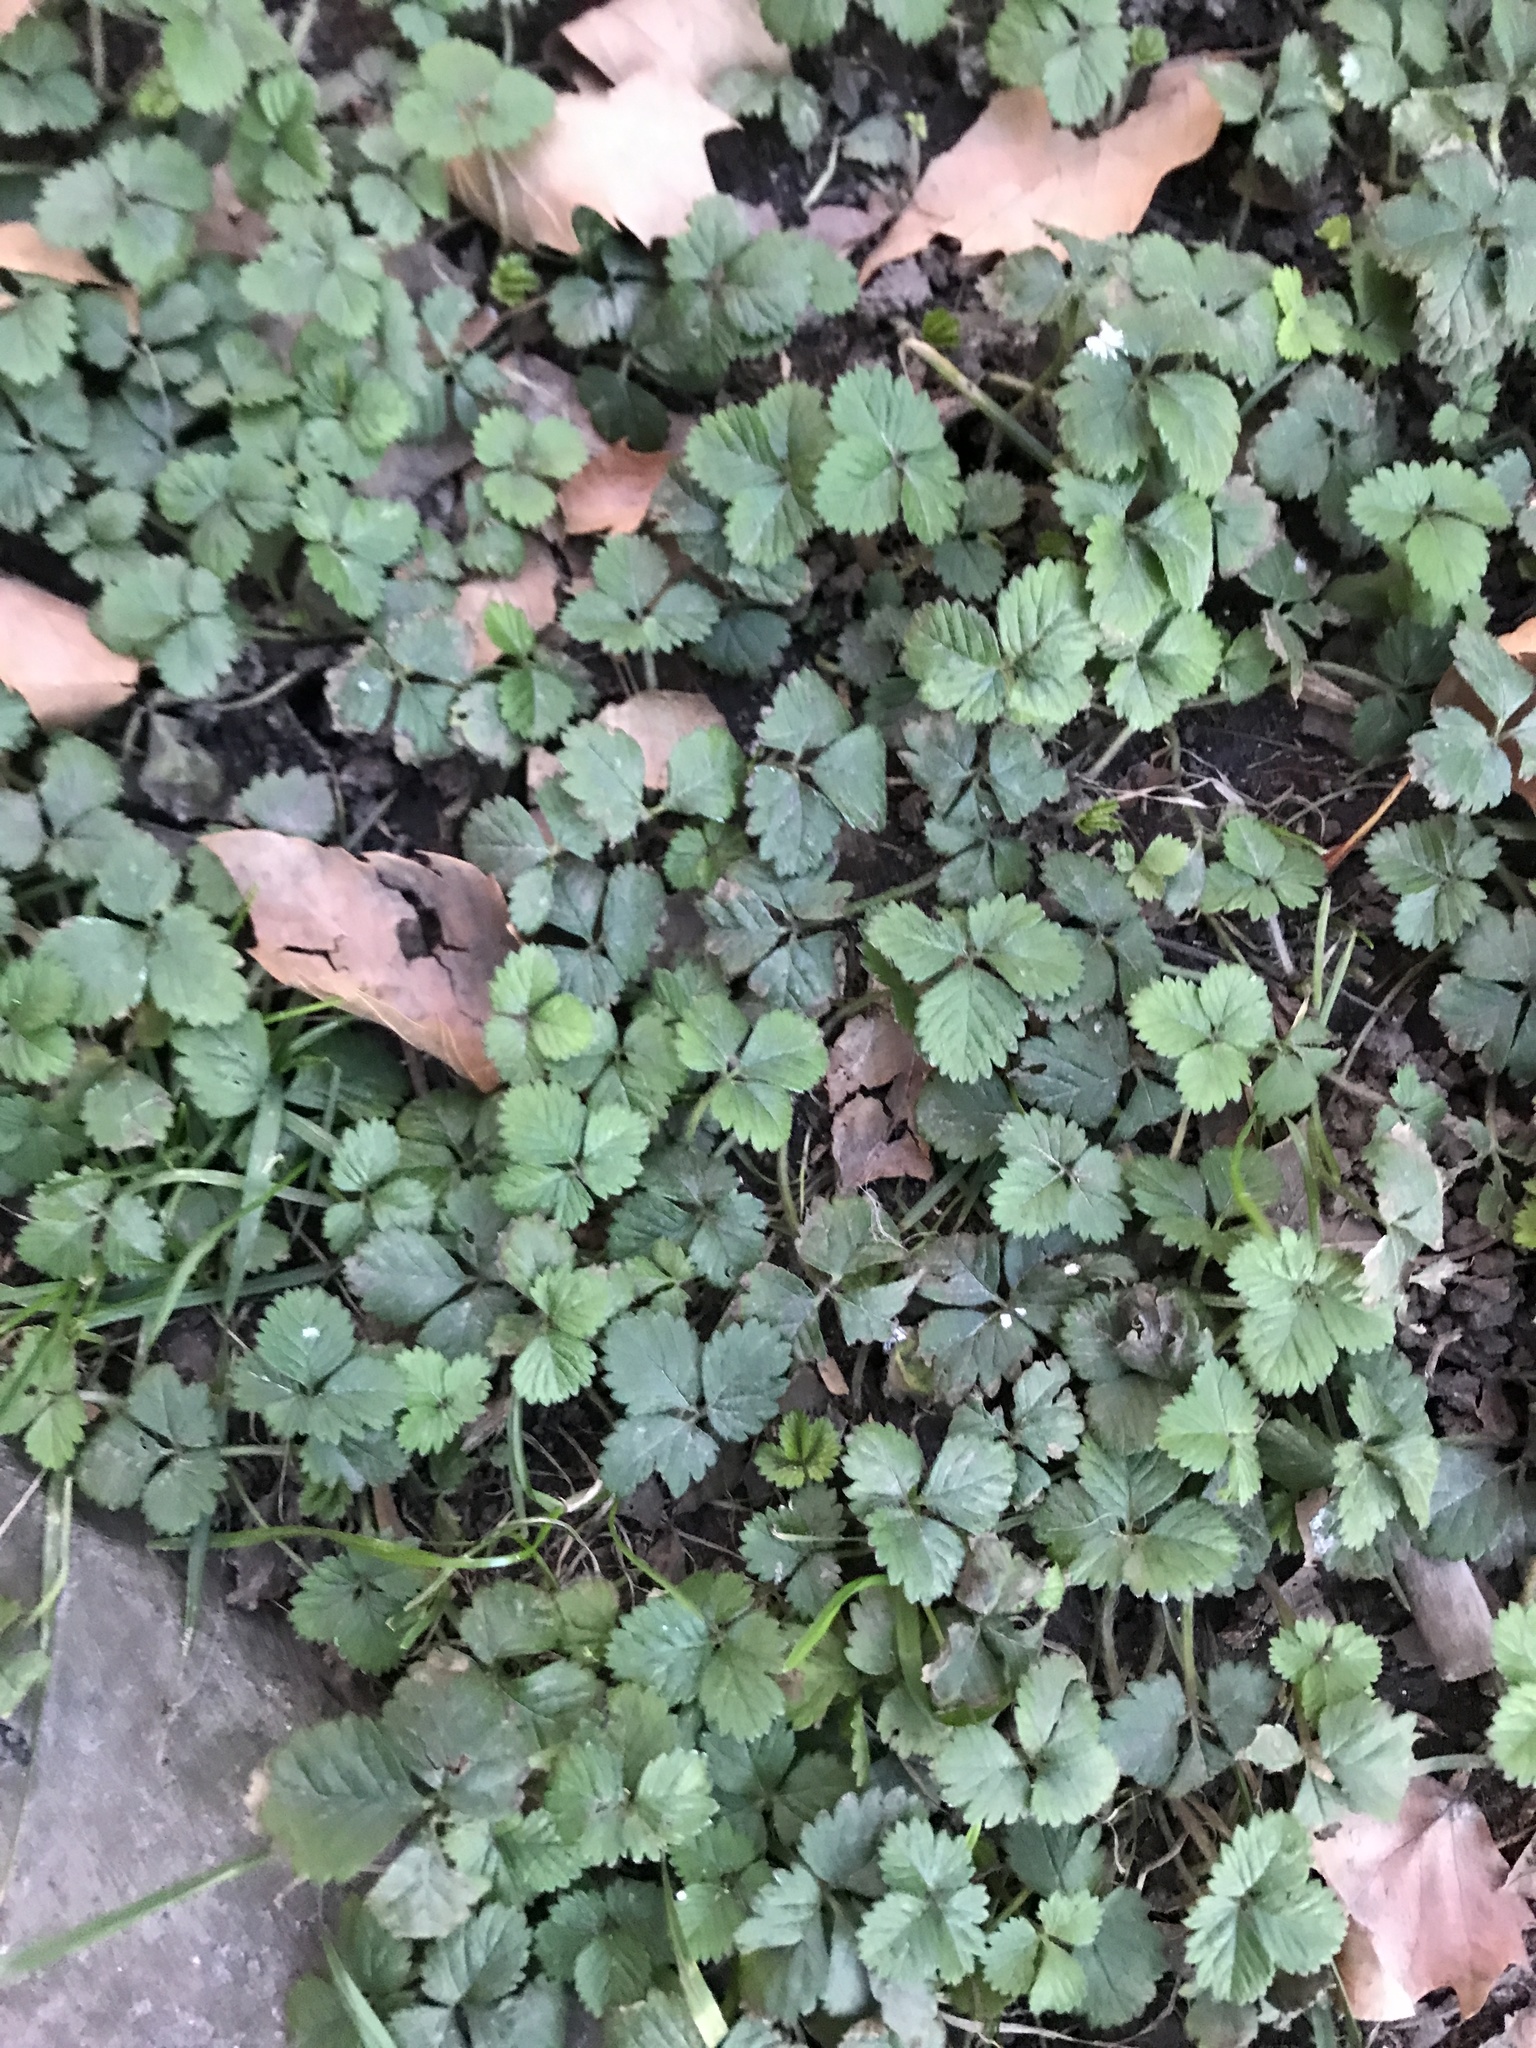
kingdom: Plantae
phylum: Tracheophyta
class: Magnoliopsida
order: Rosales
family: Rosaceae
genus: Potentilla
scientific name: Potentilla indica
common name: Yellow-flowered strawberry
